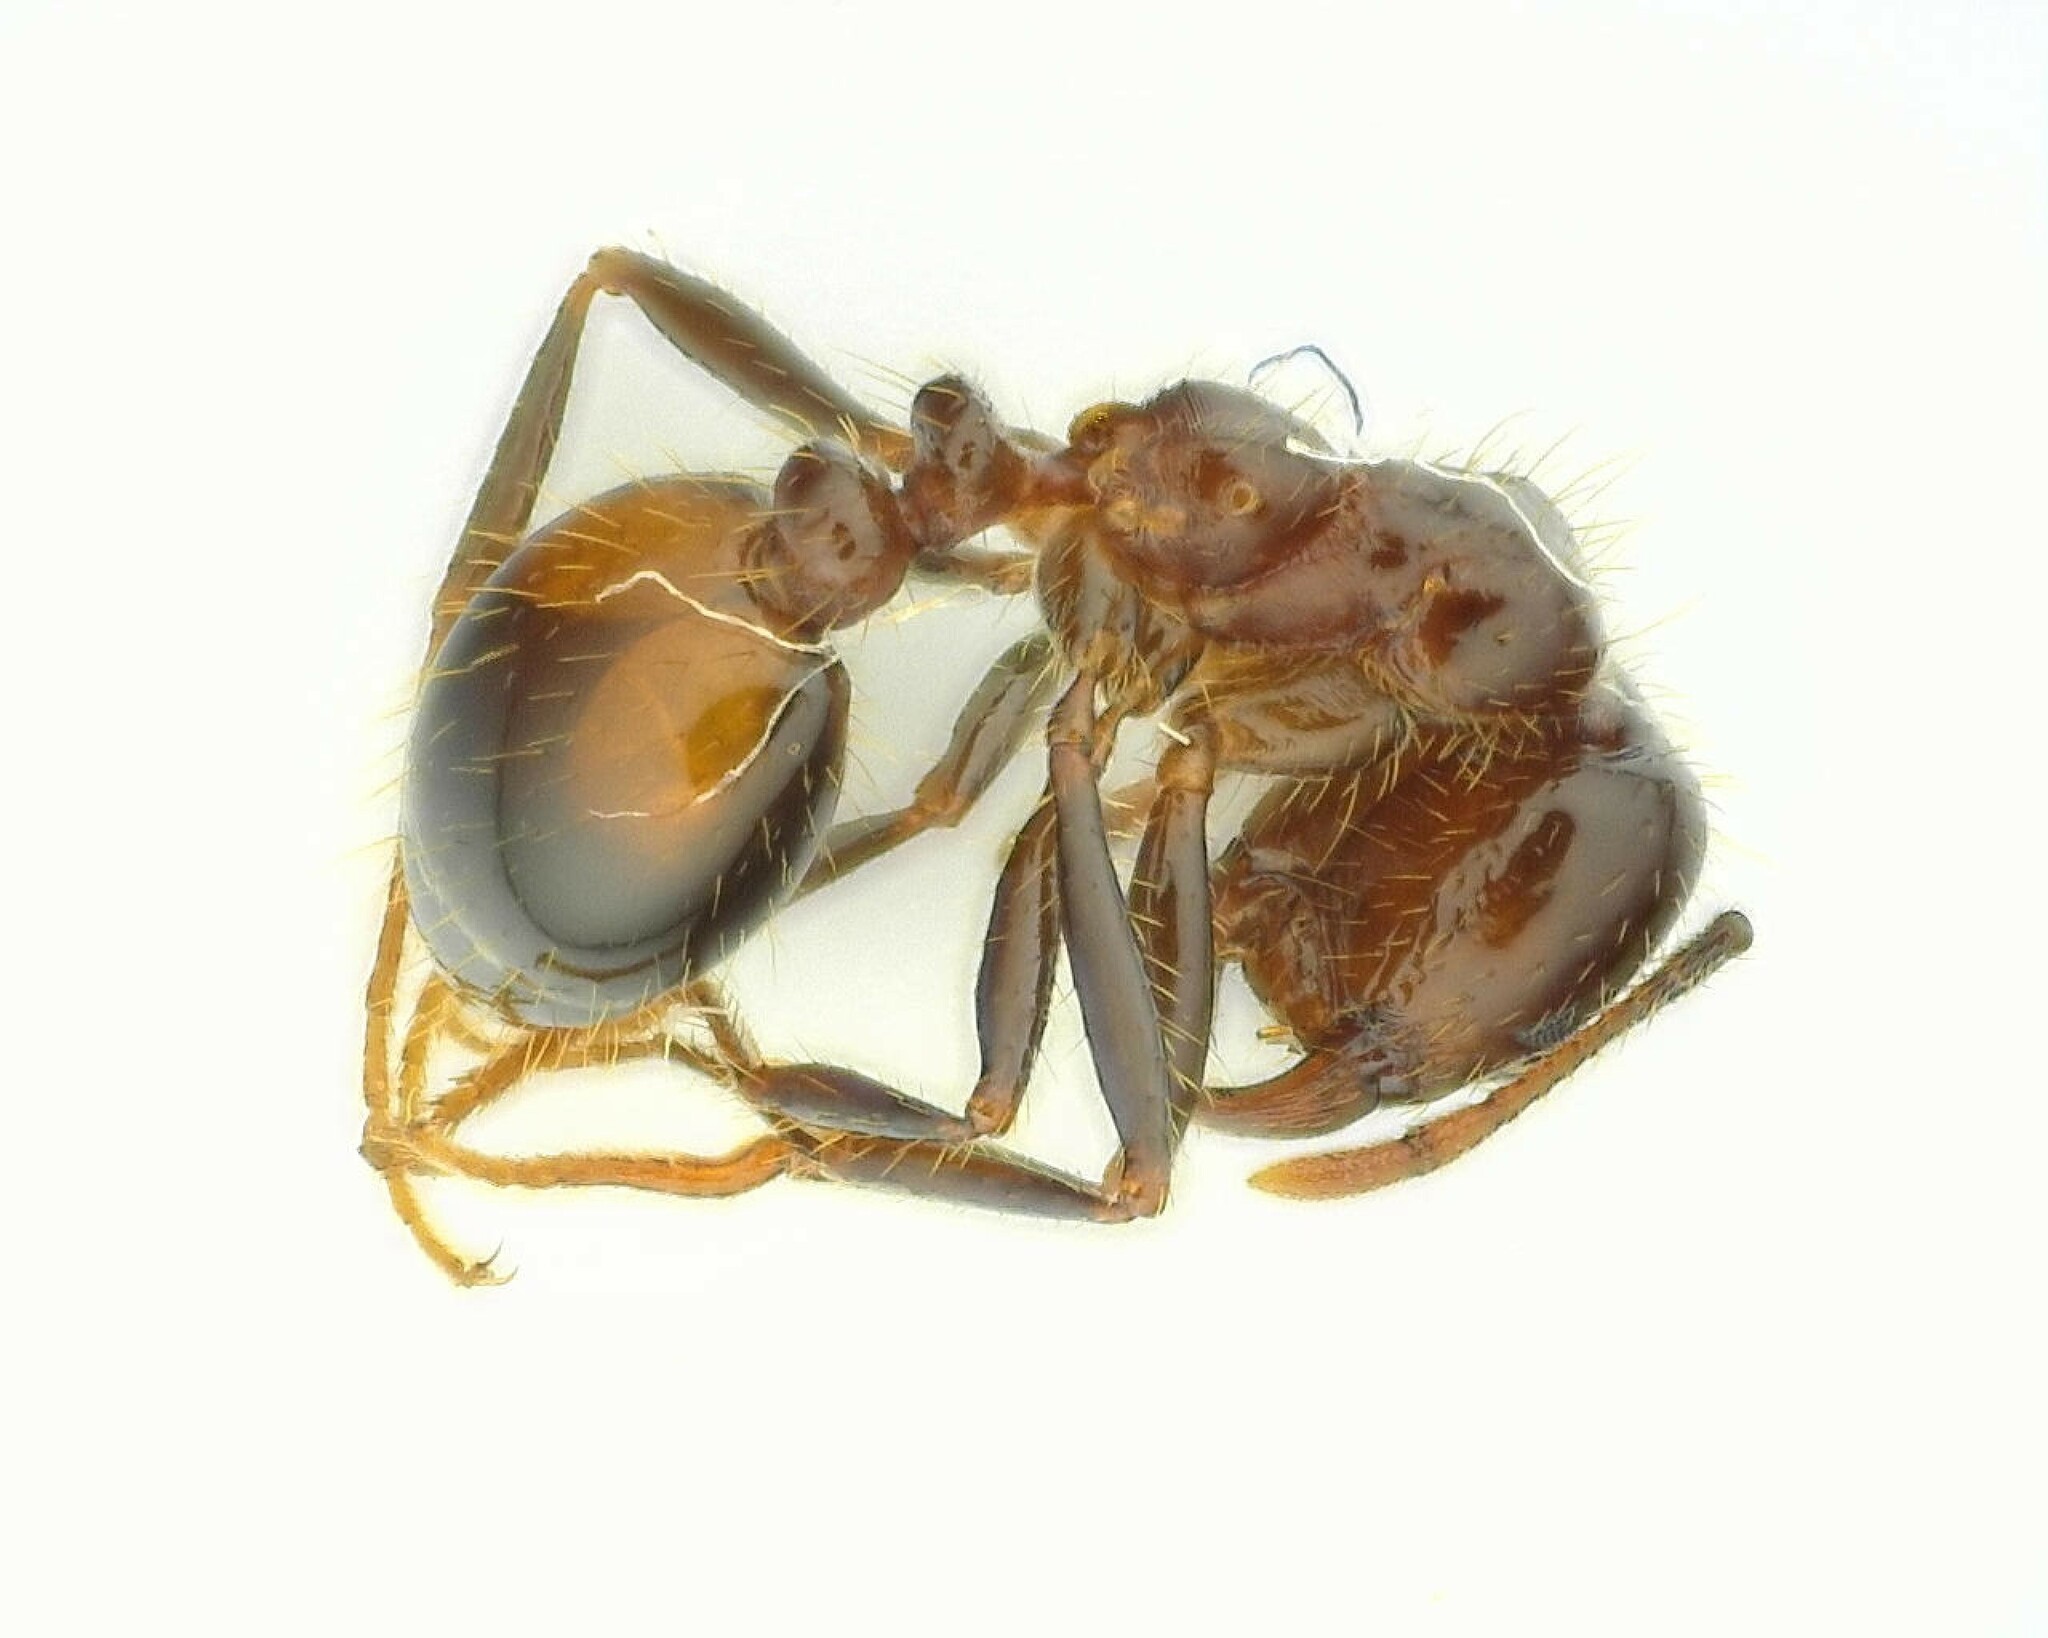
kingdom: Animalia
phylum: Arthropoda
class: Insecta
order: Hymenoptera
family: Formicidae
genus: Solenopsis
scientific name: Solenopsis invicta
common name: Red imported fire ant
